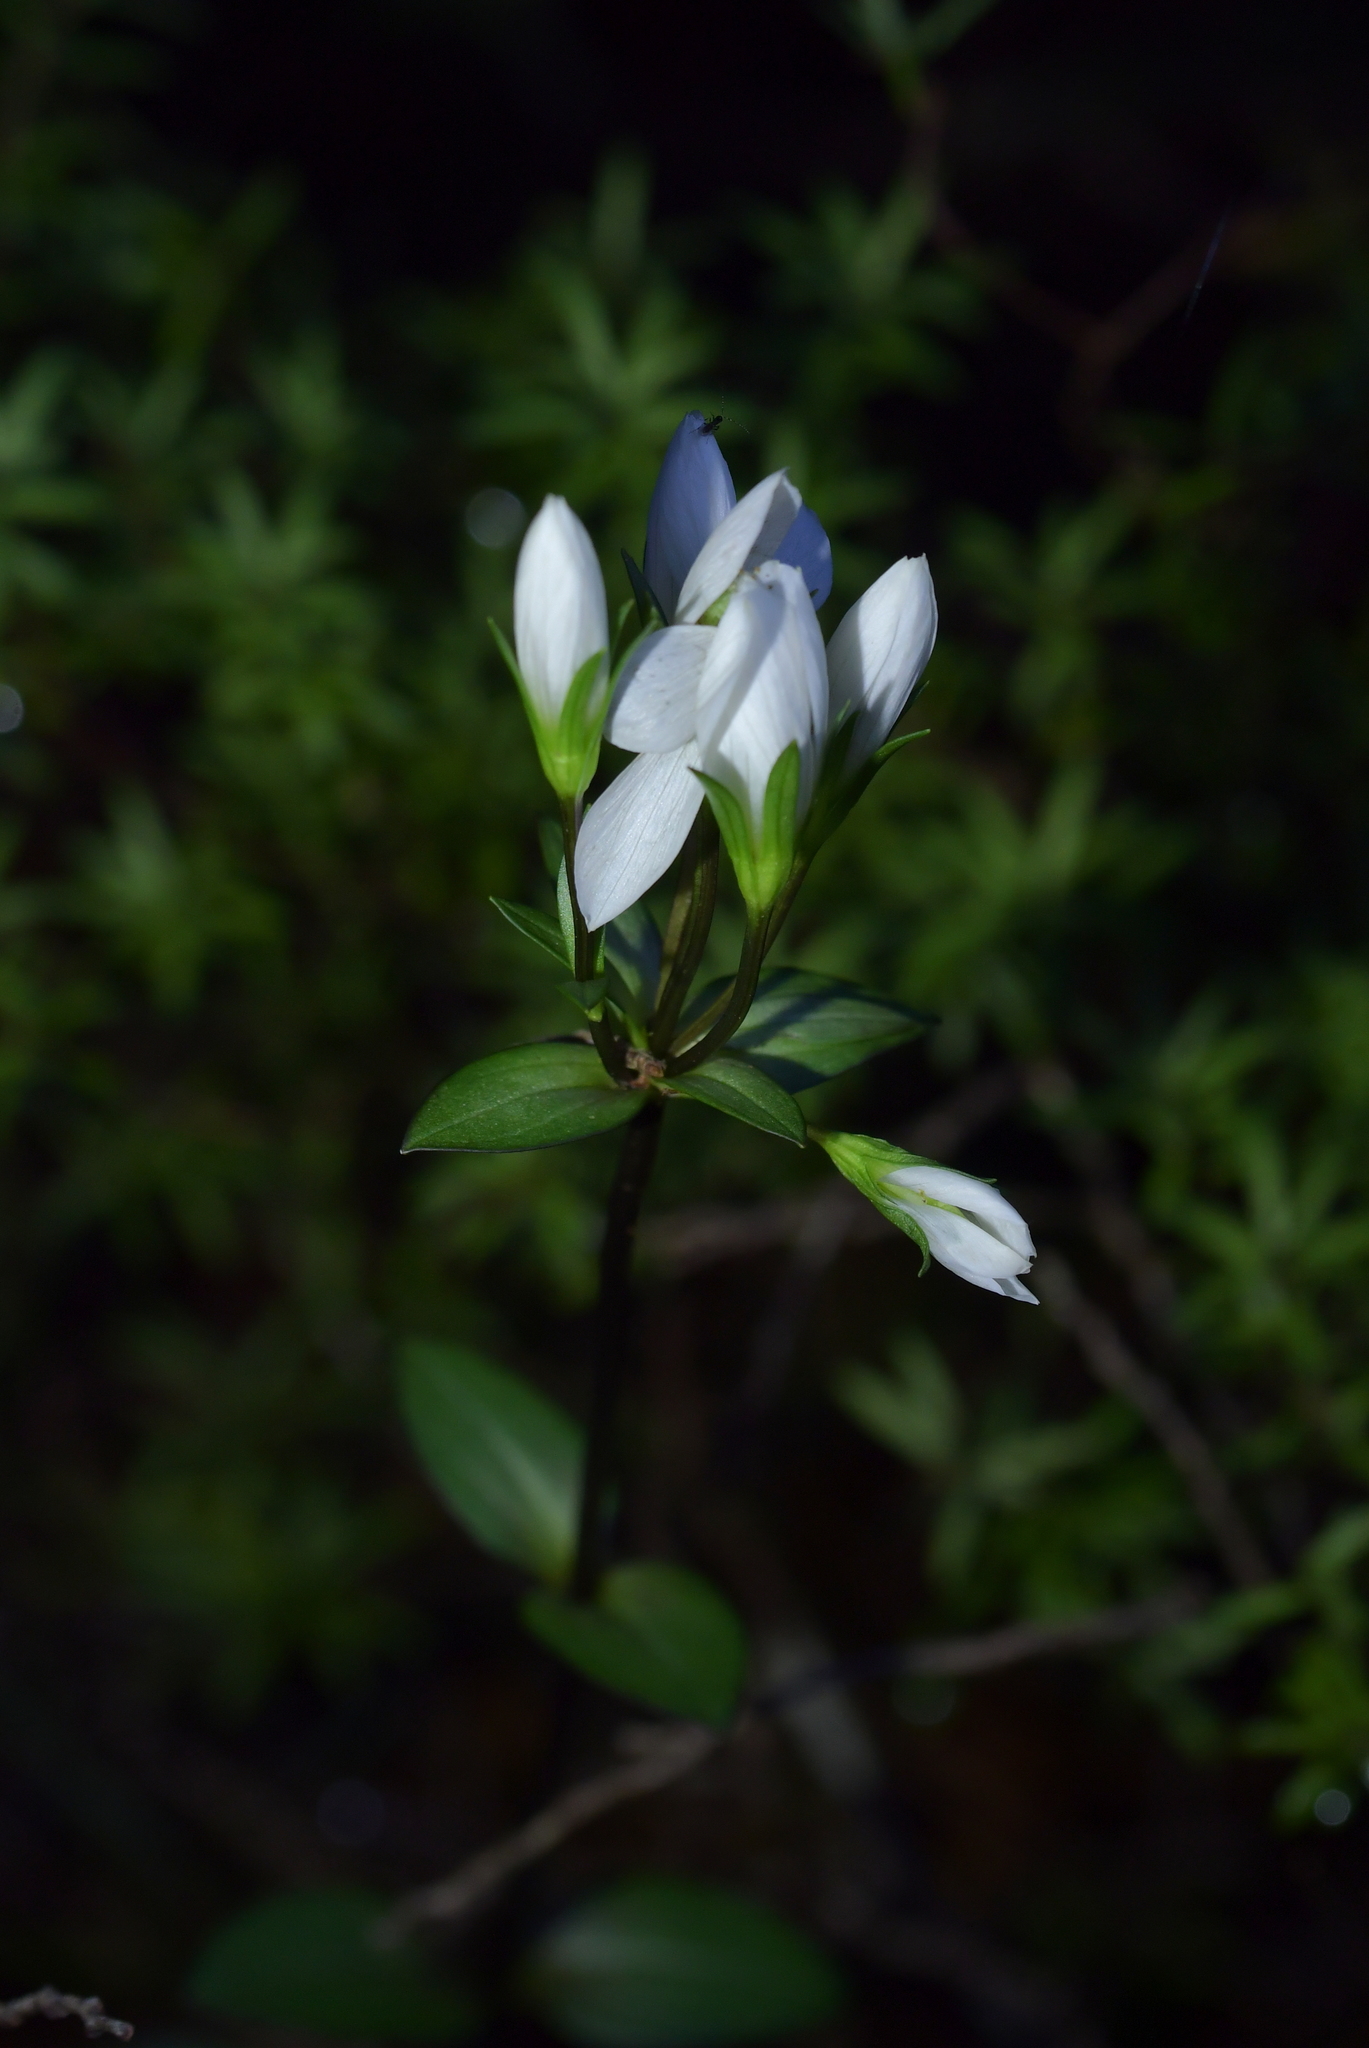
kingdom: Plantae
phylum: Tracheophyta
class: Magnoliopsida
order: Gentianales
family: Gentianaceae
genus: Gentianella
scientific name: Gentianella montana
